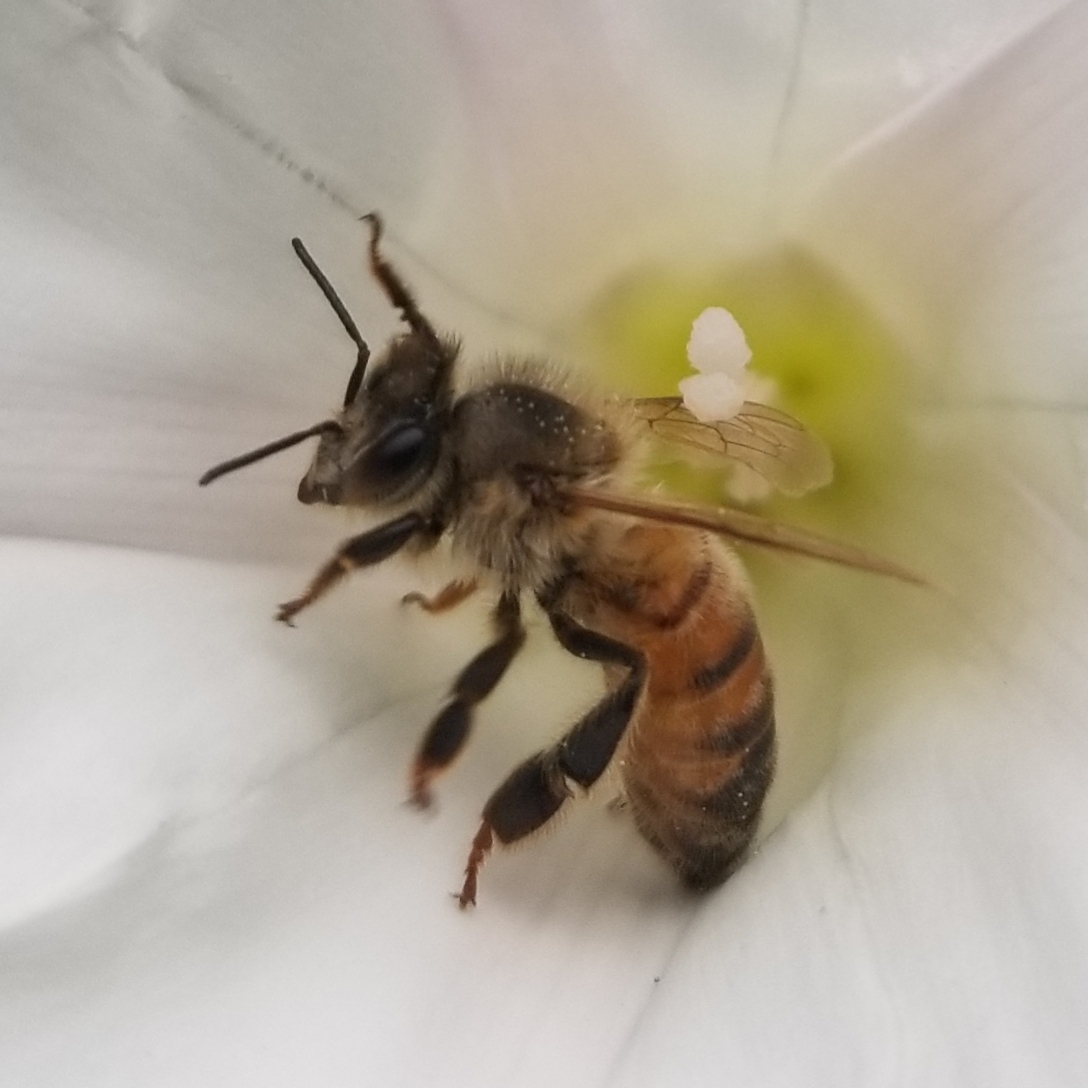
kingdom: Animalia
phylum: Arthropoda
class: Insecta
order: Hymenoptera
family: Apidae
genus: Apis
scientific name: Apis mellifera
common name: Honey bee
